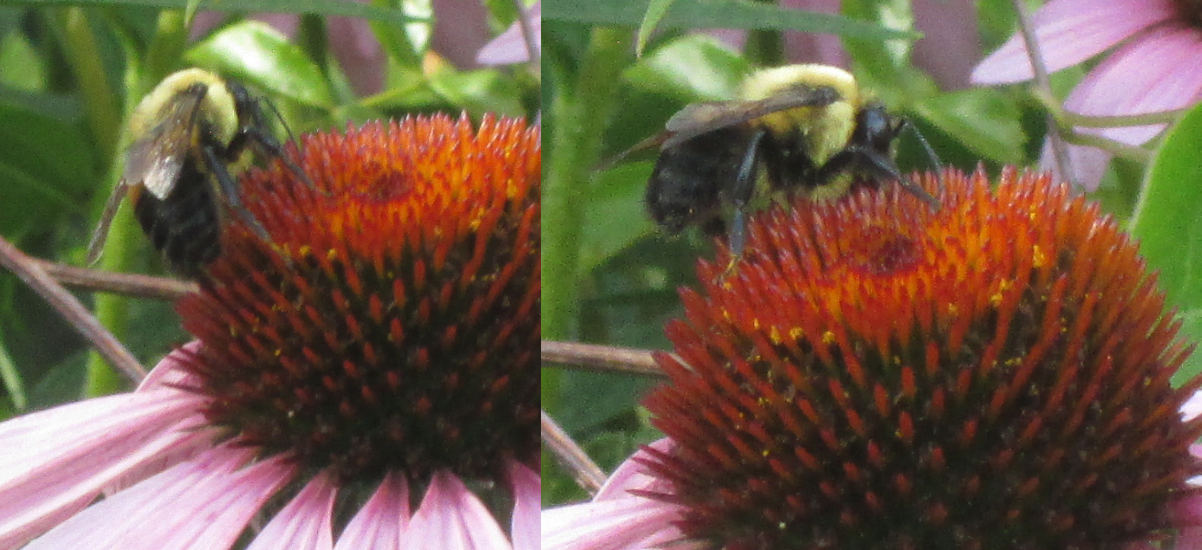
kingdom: Animalia
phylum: Arthropoda
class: Insecta
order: Hymenoptera
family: Apidae
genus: Bombus
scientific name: Bombus griseocollis
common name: Brown-belted bumble bee
